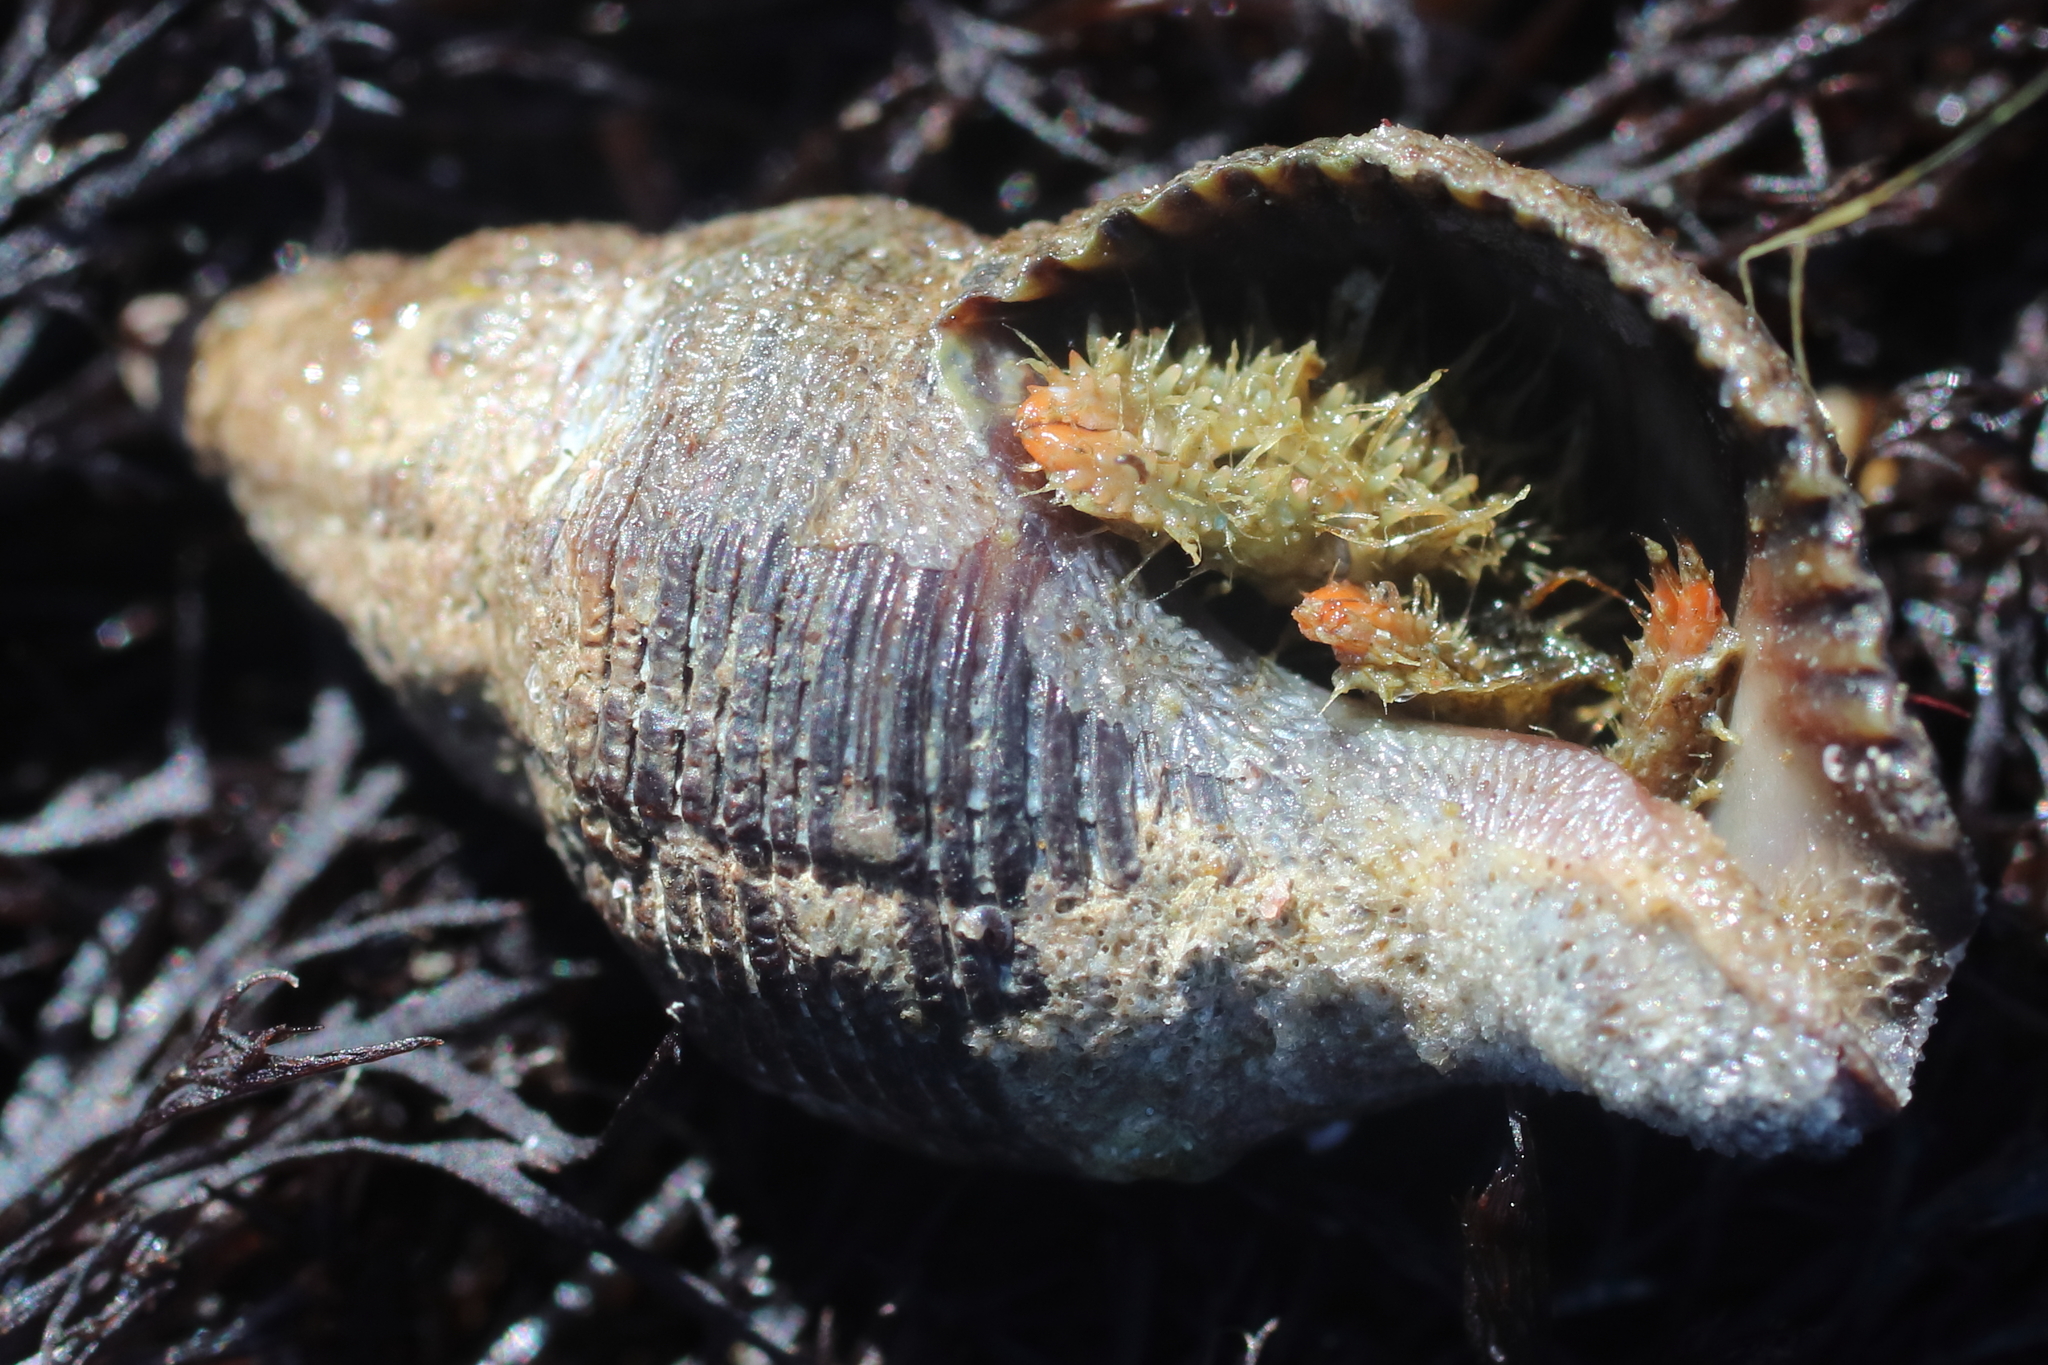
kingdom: Animalia
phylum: Arthropoda
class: Malacostraca
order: Decapoda
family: Paguridae
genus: Pagurus
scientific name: Pagurus caurinus
